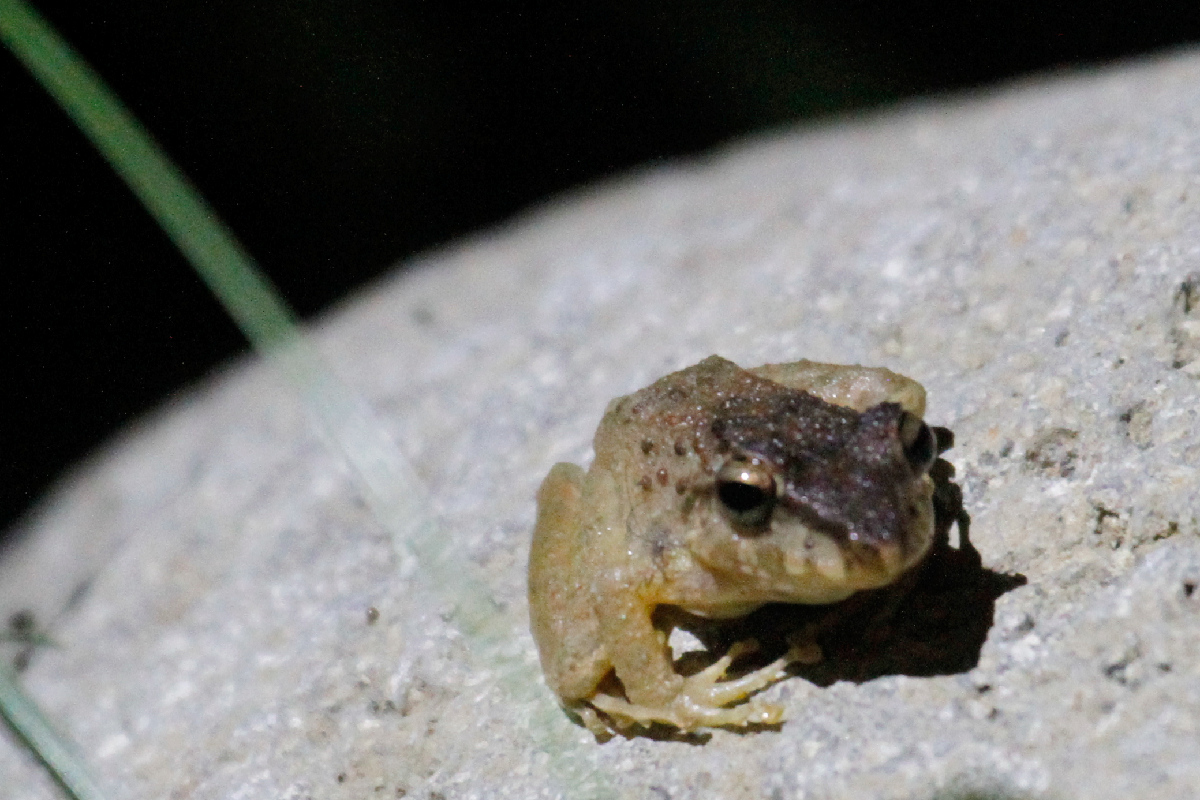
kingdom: Animalia
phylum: Chordata
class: Amphibia
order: Anura
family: Craugastoridae
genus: Craugastor
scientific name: Craugastor fitzingeri
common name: Fitzinger's robber frog
